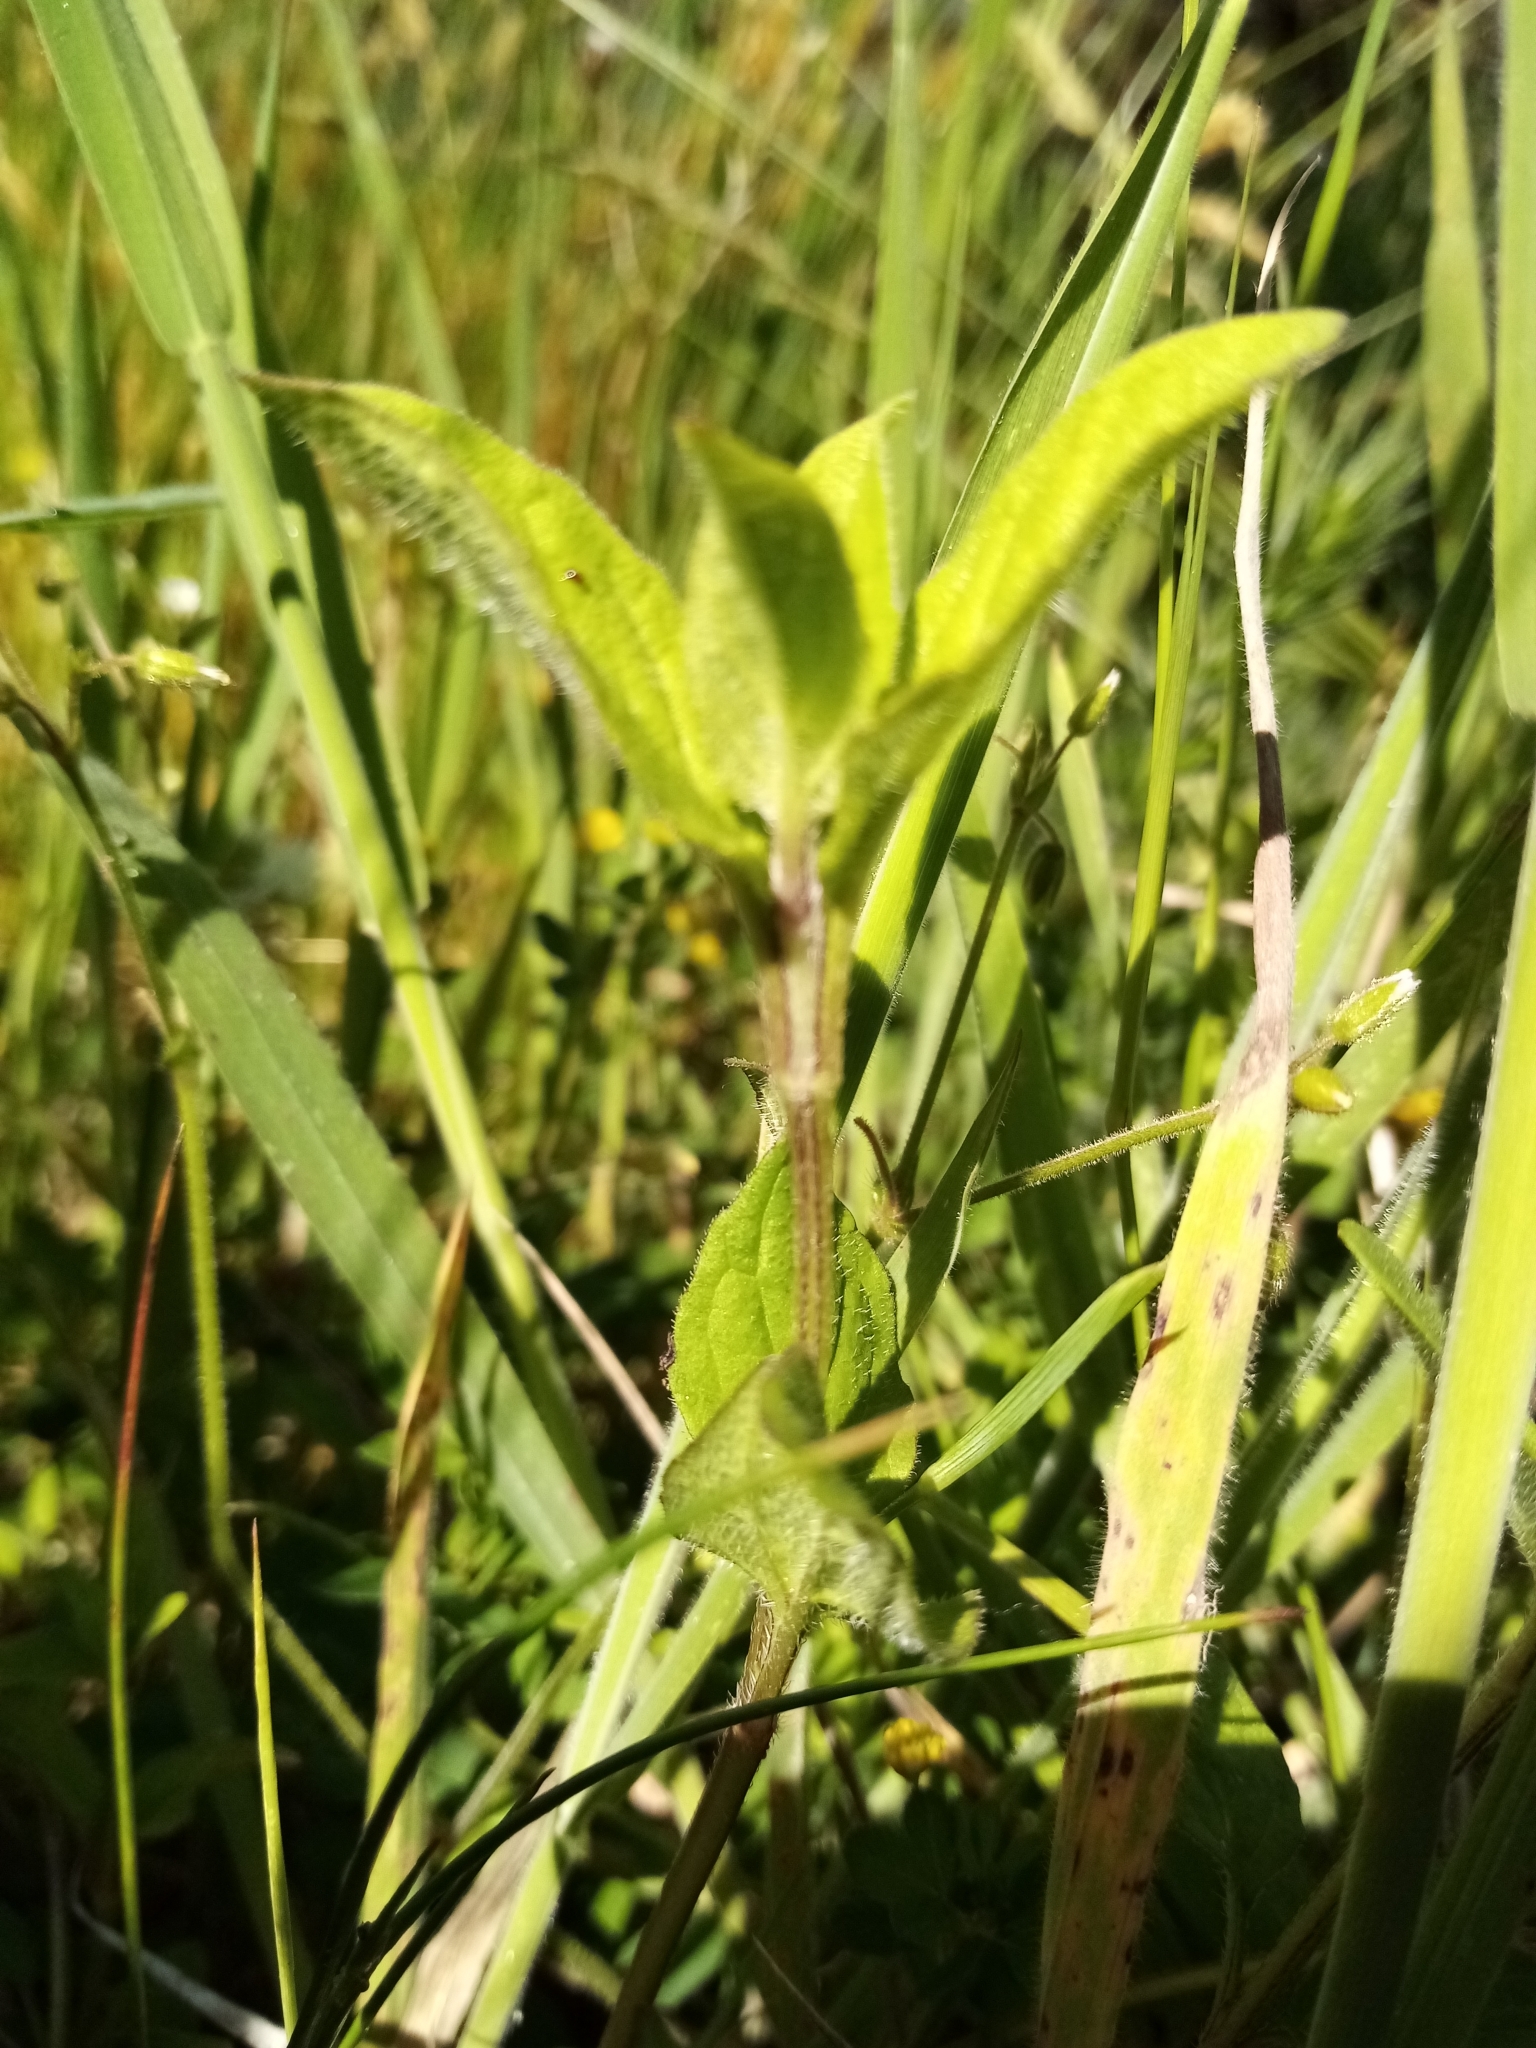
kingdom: Plantae
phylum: Tracheophyta
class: Magnoliopsida
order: Lamiales
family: Lamiaceae
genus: Prunella
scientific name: Prunella vulgaris
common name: Heal-all
